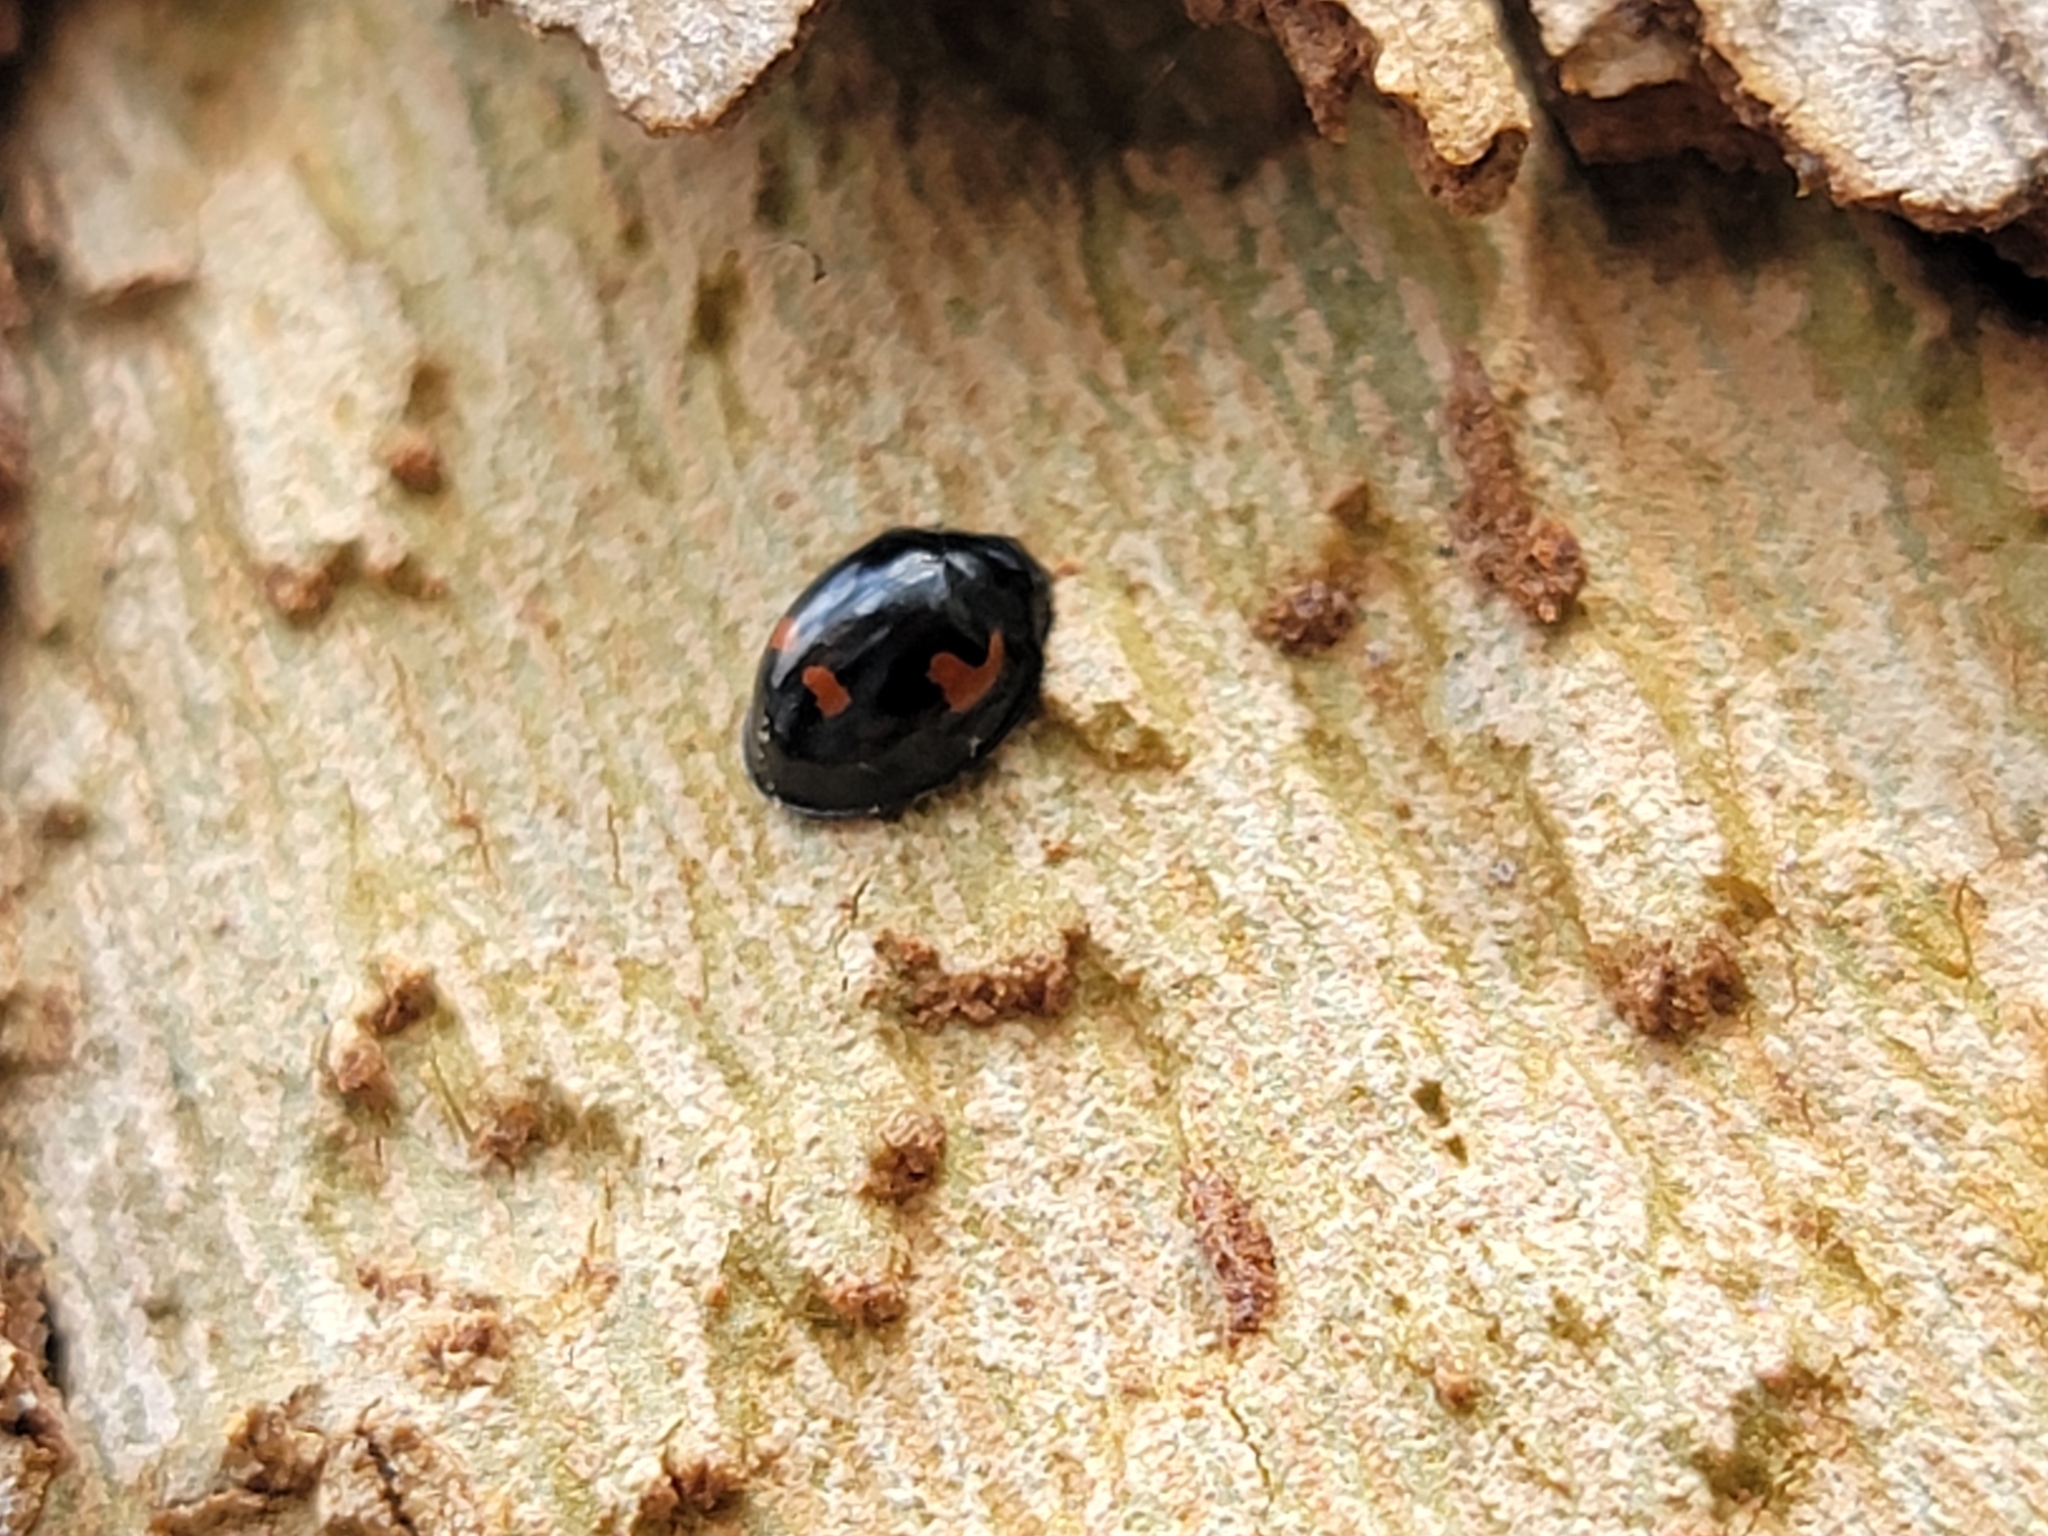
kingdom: Animalia
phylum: Arthropoda
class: Insecta
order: Coleoptera
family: Coccinellidae
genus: Brumus
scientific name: Brumus quadripustulatus
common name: Ladybird beetle
